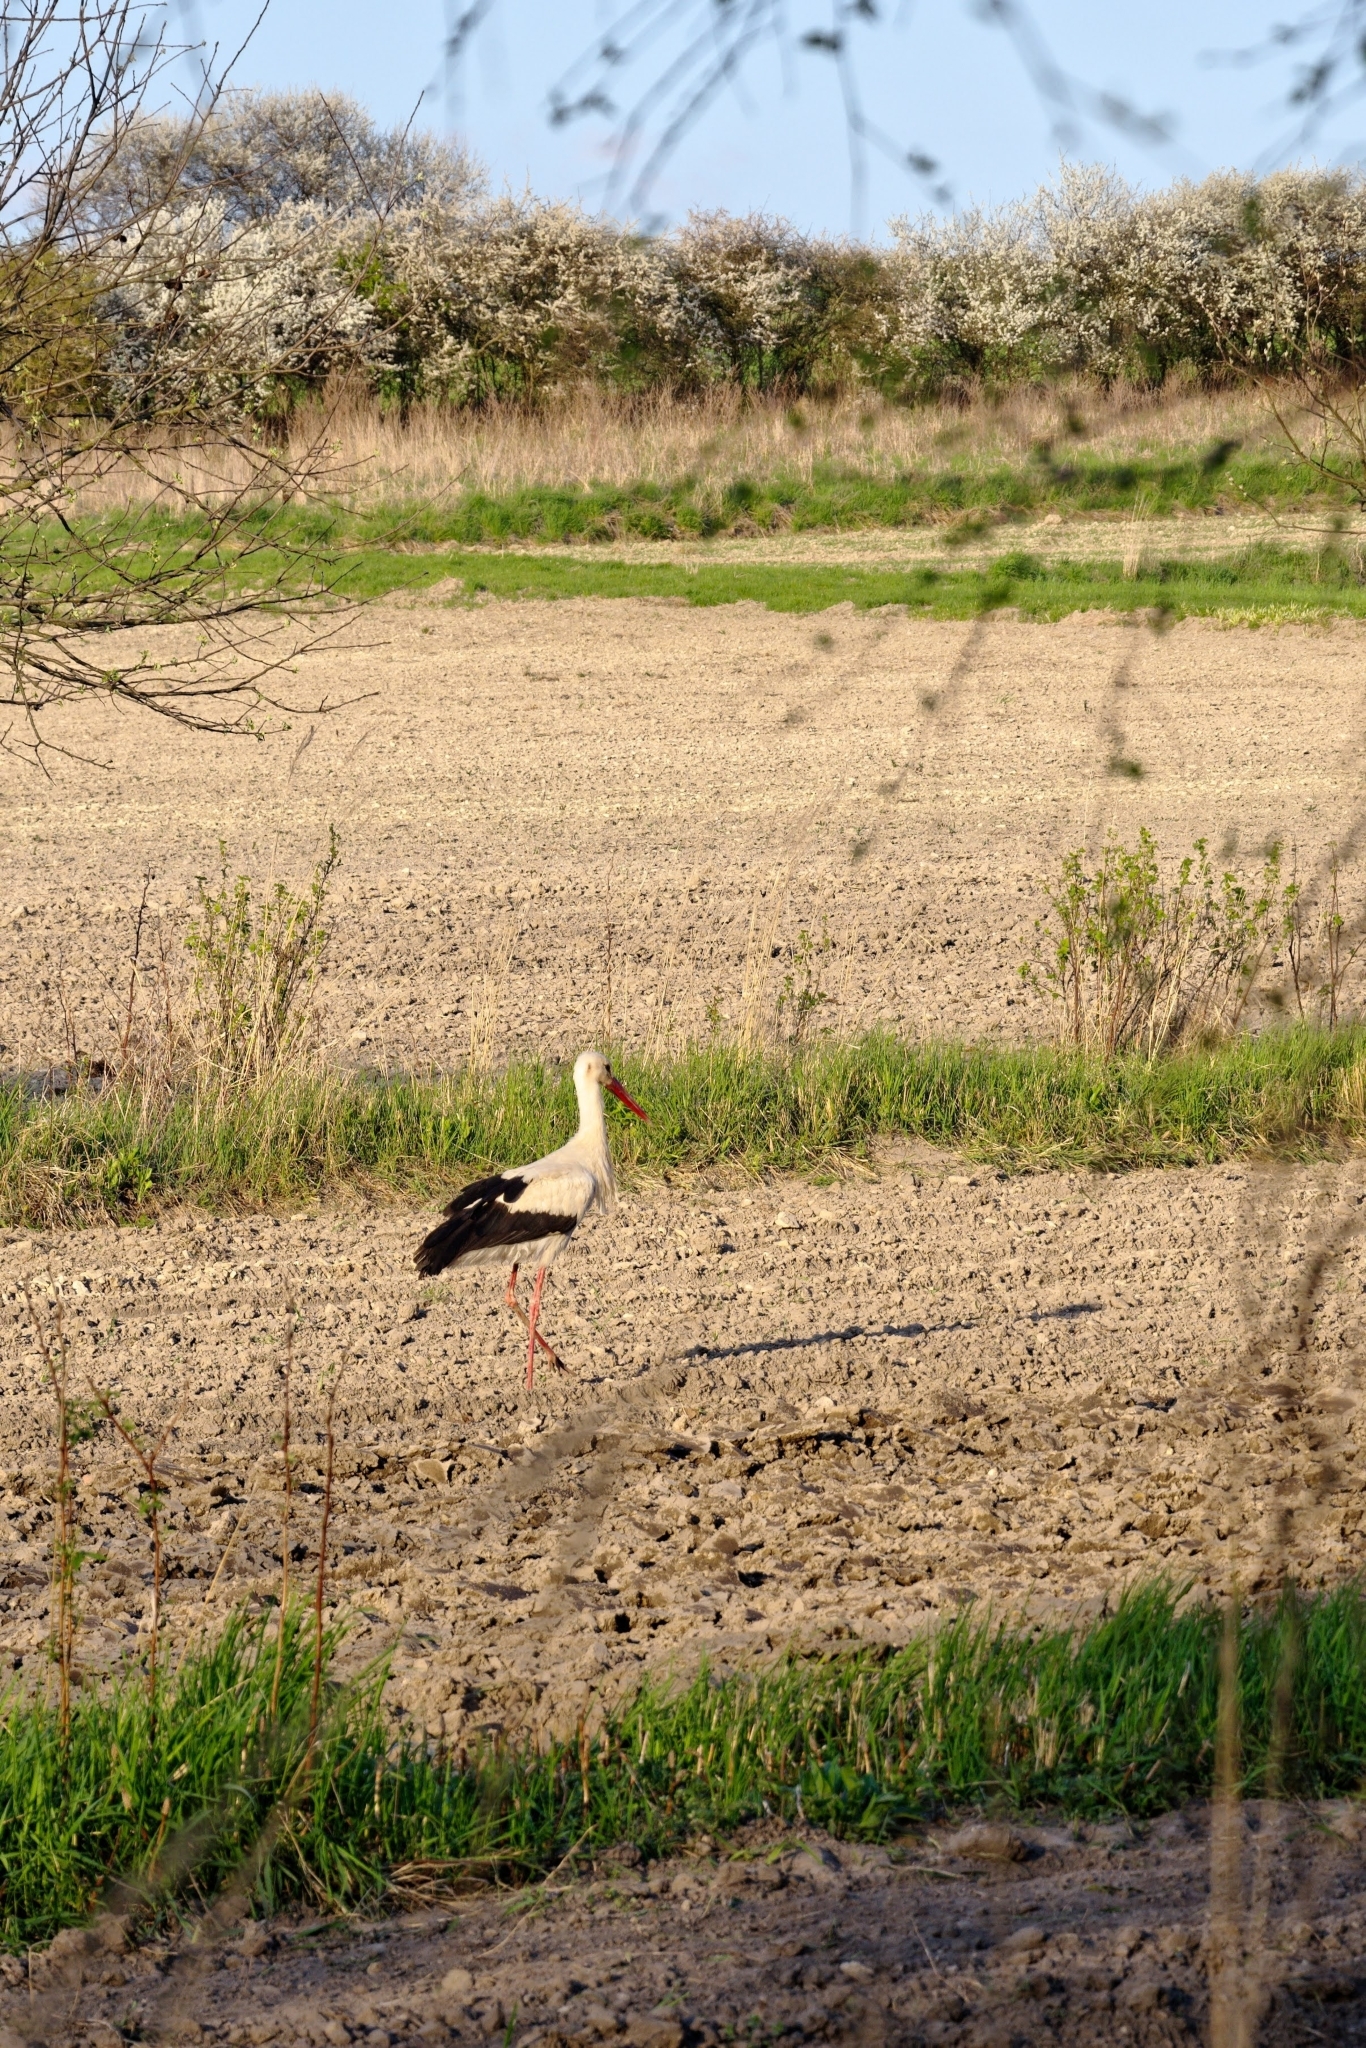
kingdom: Animalia
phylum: Chordata
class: Aves
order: Ciconiiformes
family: Ciconiidae
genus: Ciconia
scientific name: Ciconia ciconia
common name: White stork
